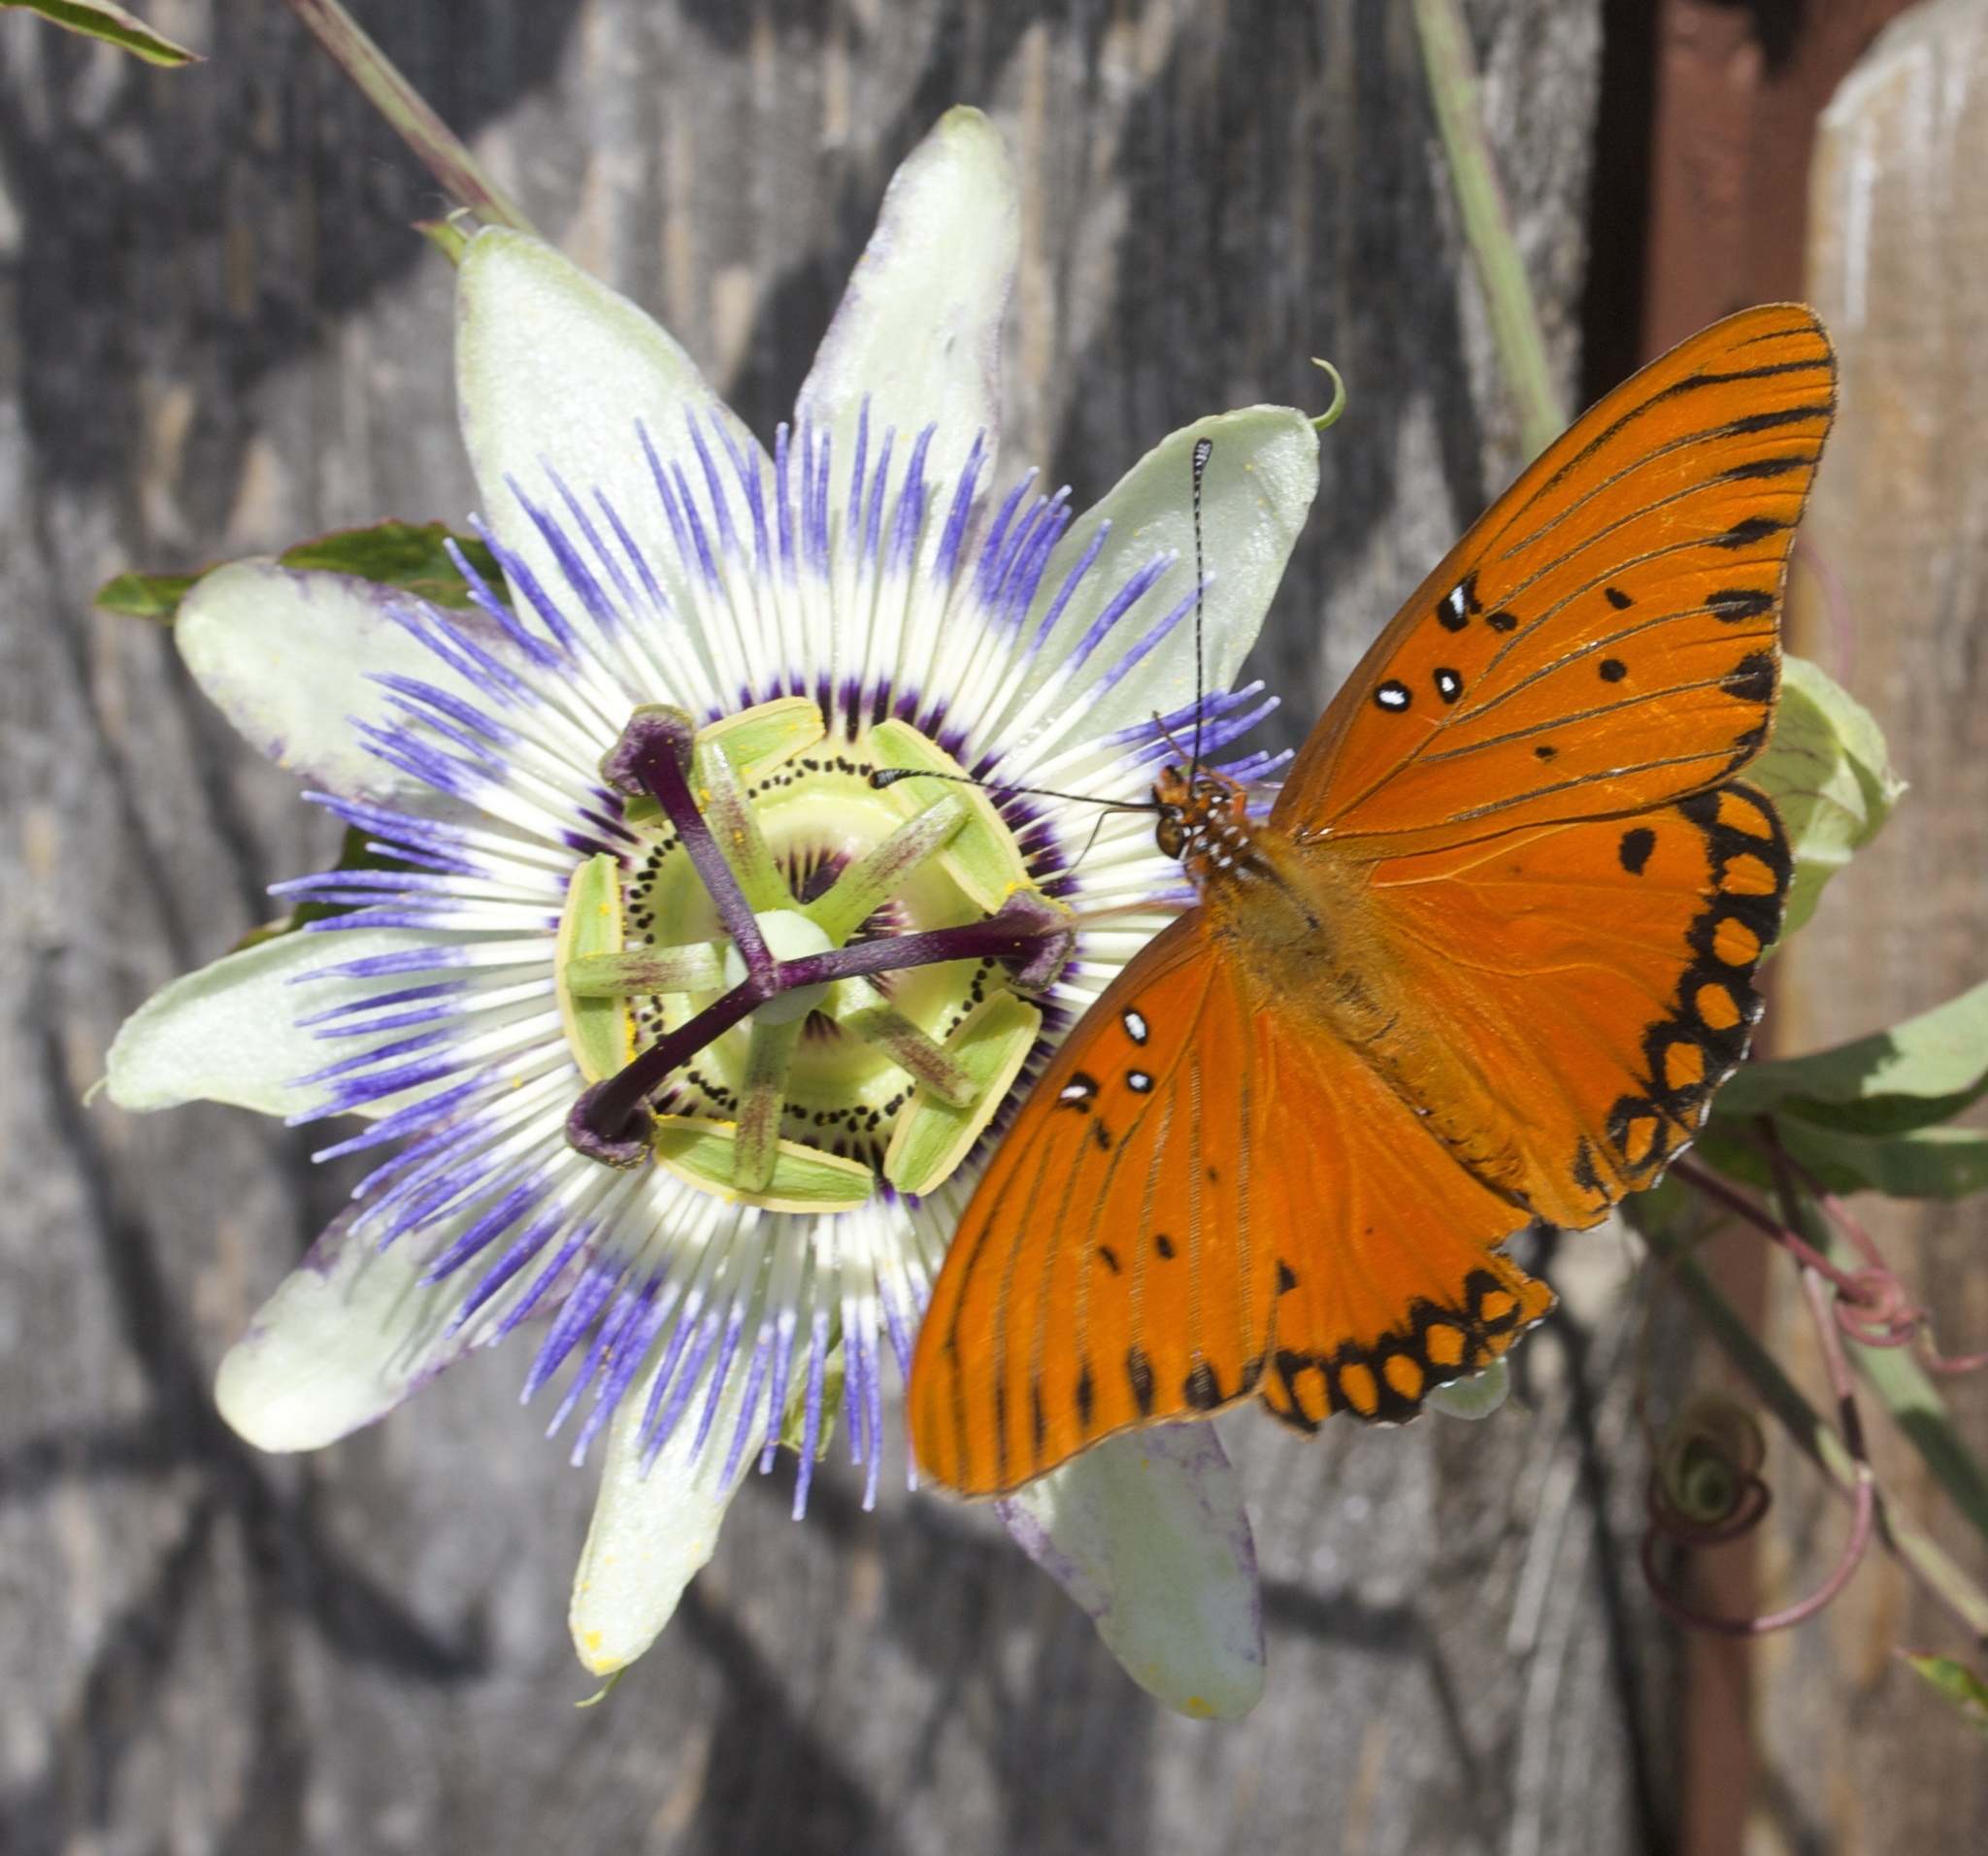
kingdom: Animalia
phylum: Arthropoda
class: Insecta
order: Lepidoptera
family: Nymphalidae
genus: Dione
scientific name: Dione vanillae
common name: Gulf fritillary
